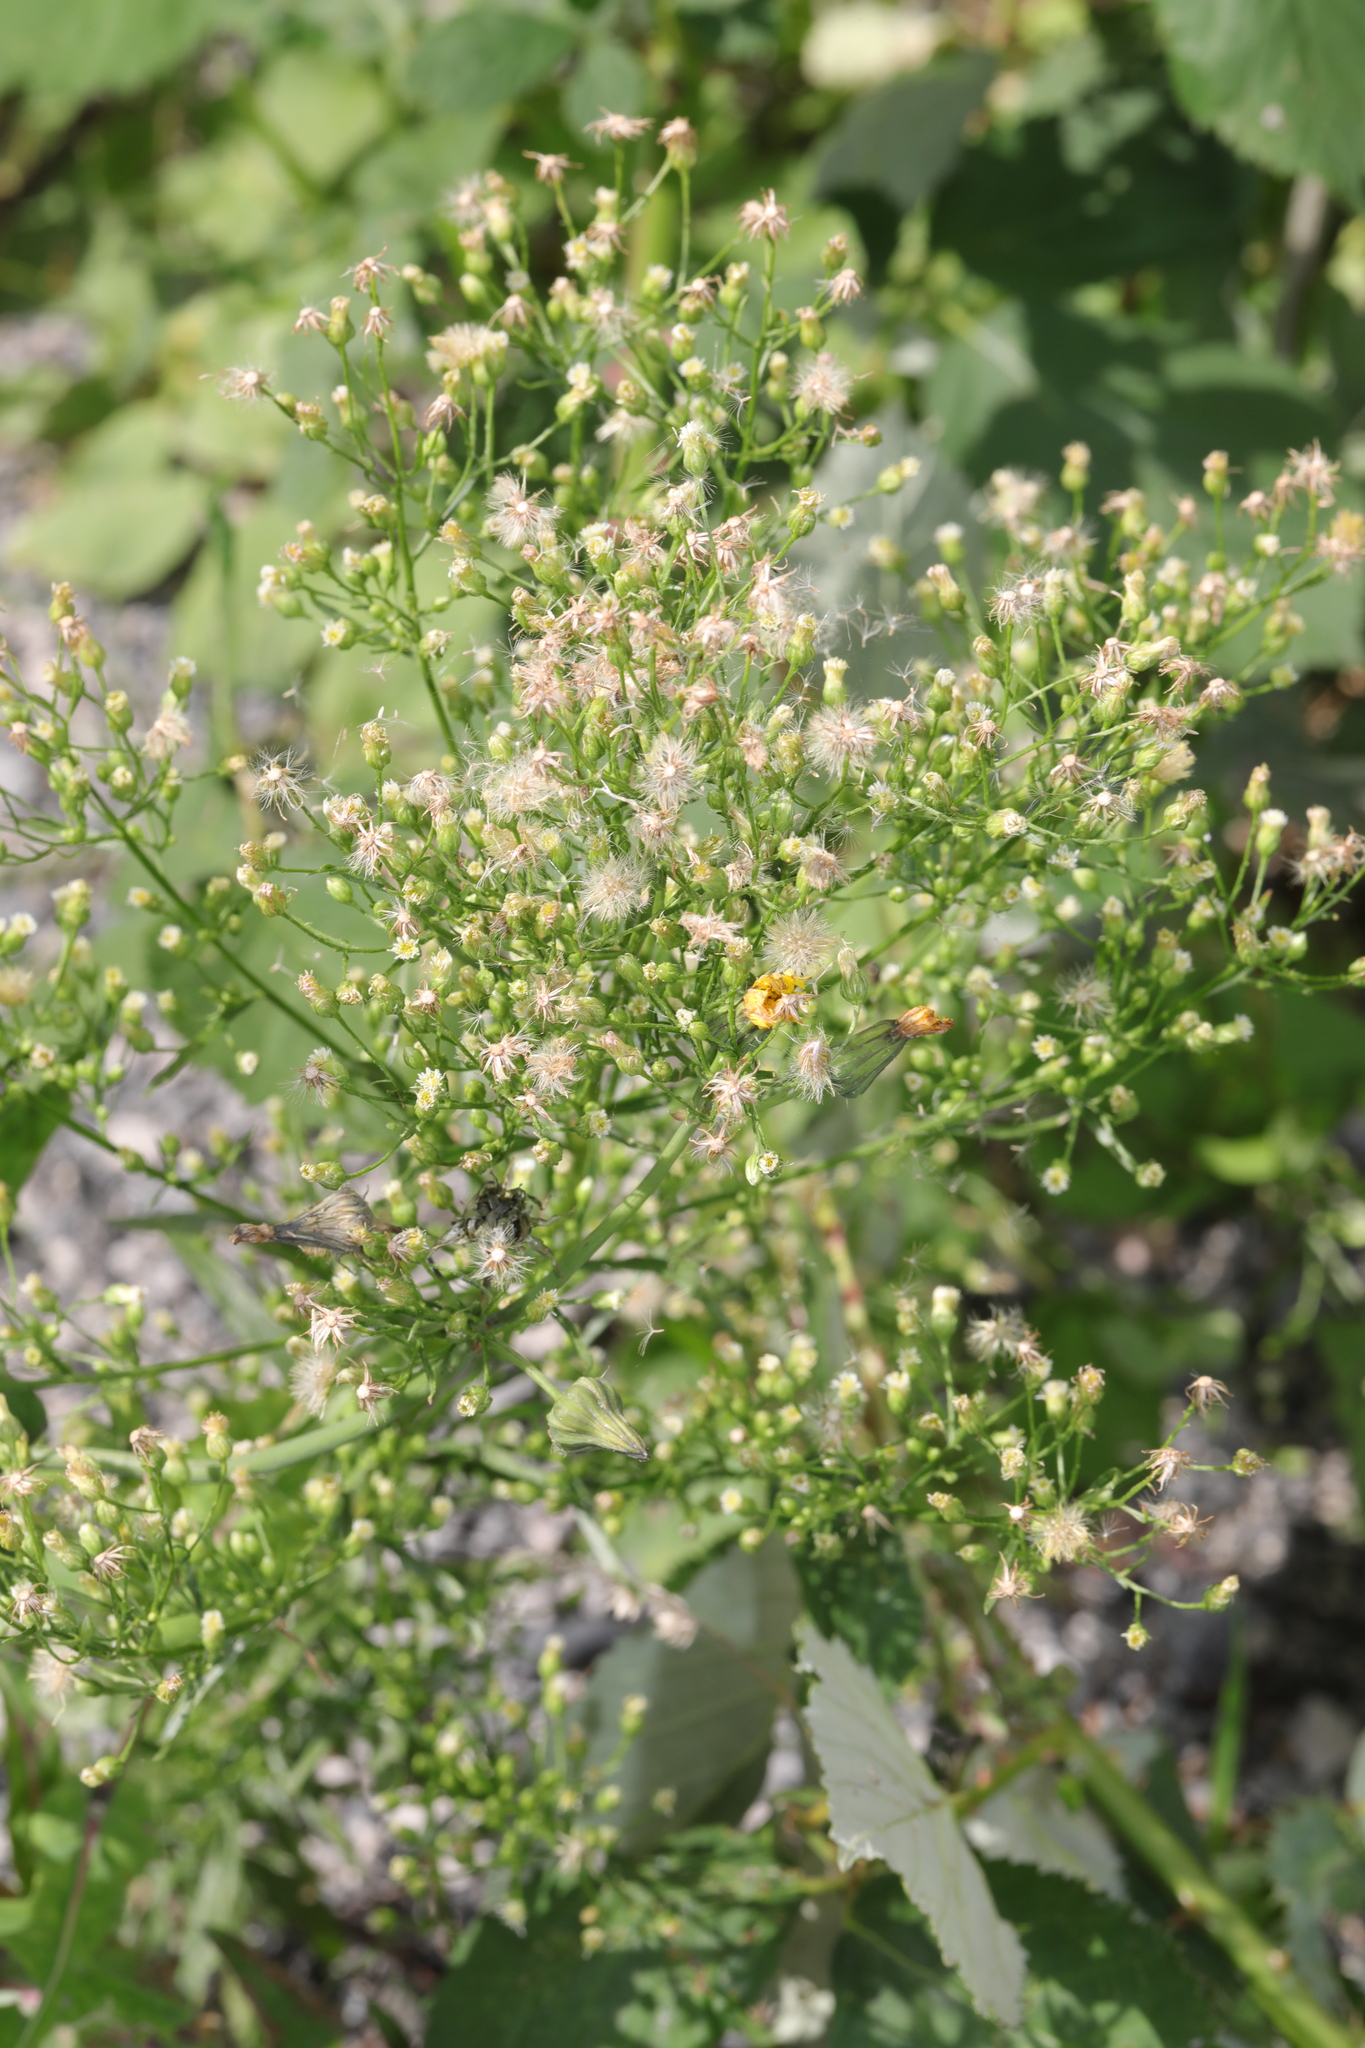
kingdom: Plantae
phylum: Tracheophyta
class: Magnoliopsida
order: Asterales
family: Asteraceae
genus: Erigeron
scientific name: Erigeron canadensis
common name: Canadian fleabane
